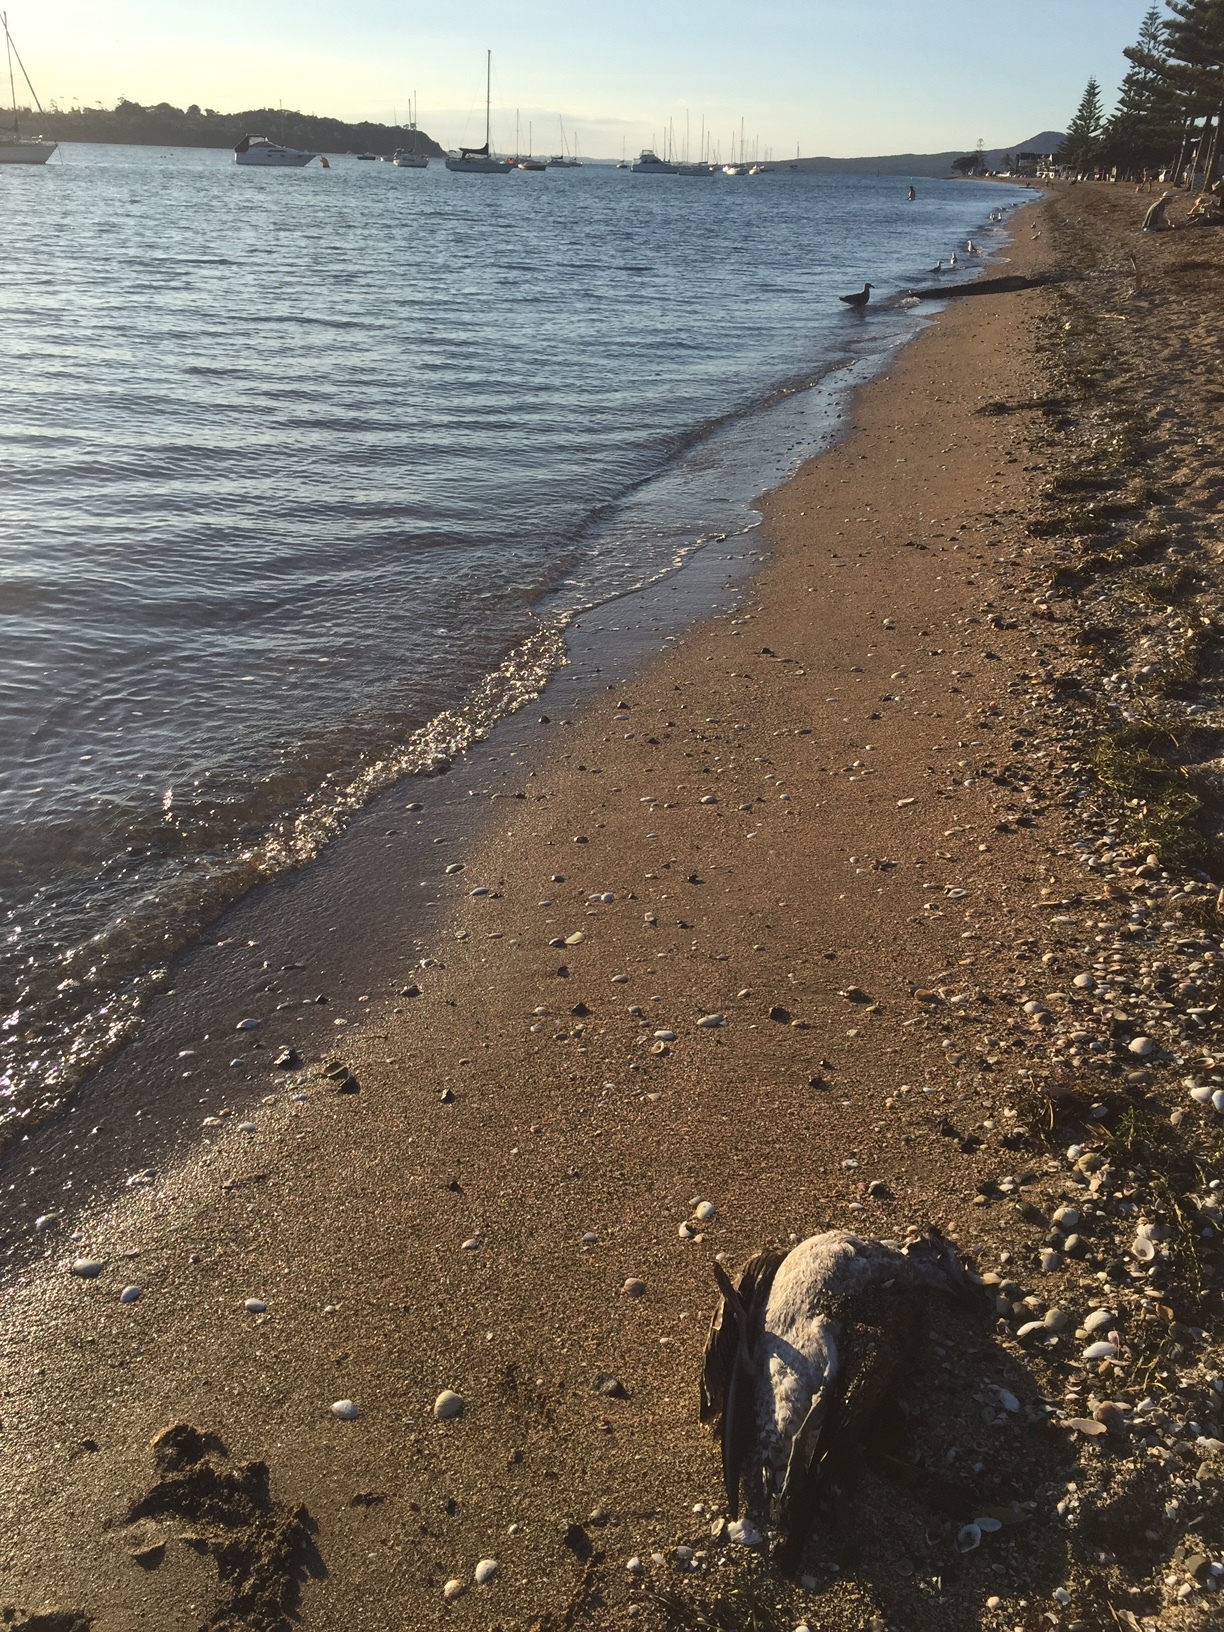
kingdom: Animalia
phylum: Chordata
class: Aves
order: Charadriiformes
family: Laridae
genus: Larus
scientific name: Larus dominicanus
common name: Kelp gull
